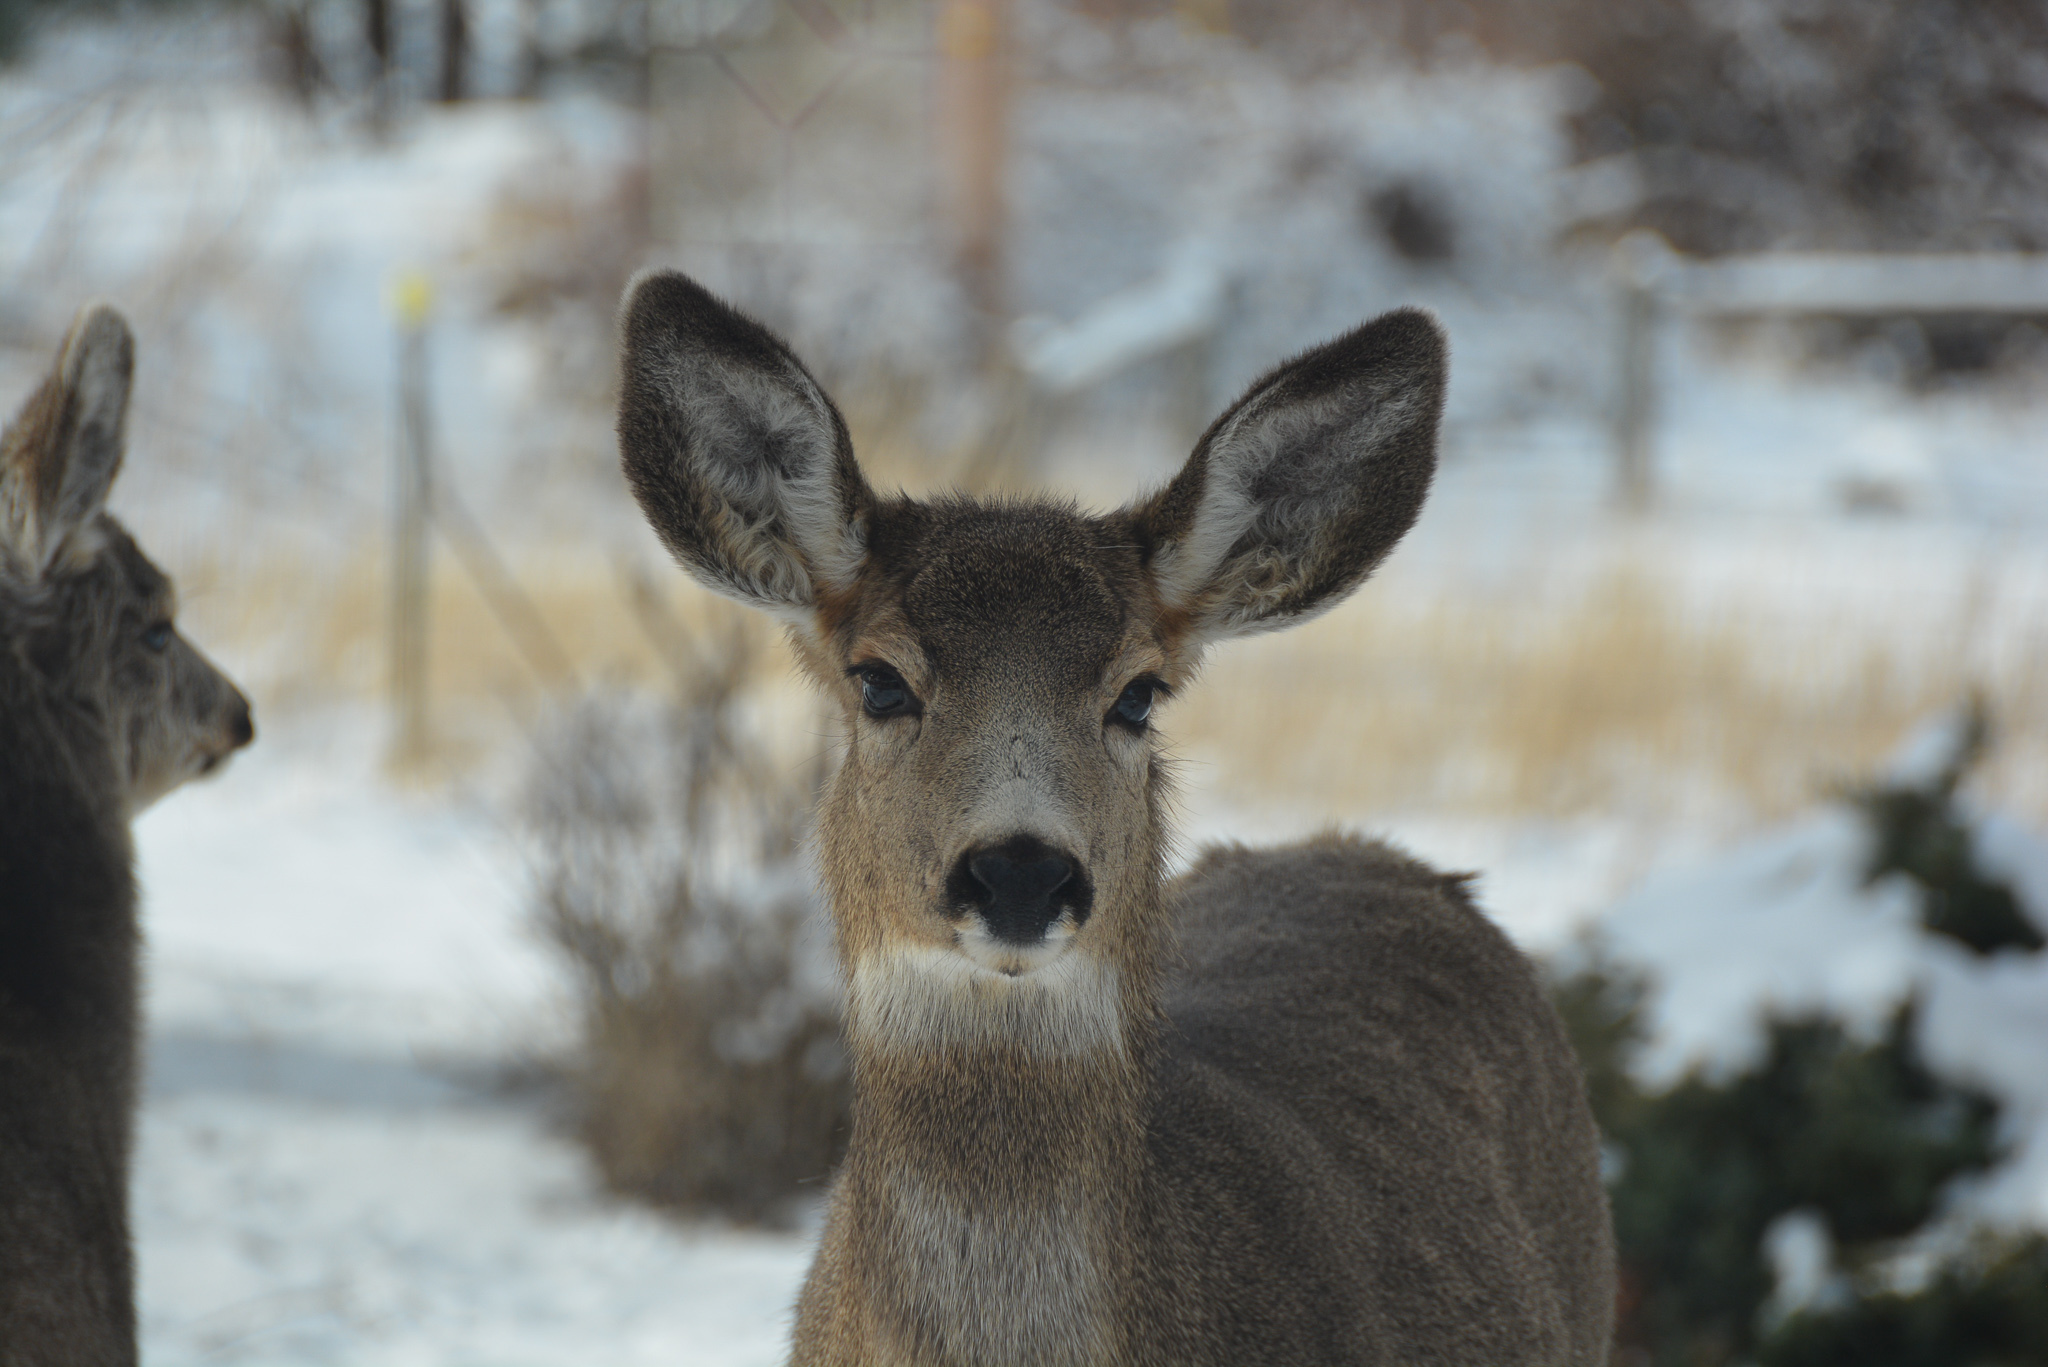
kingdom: Animalia
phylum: Chordata
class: Mammalia
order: Artiodactyla
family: Cervidae
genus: Odocoileus
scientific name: Odocoileus hemionus
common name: Mule deer
